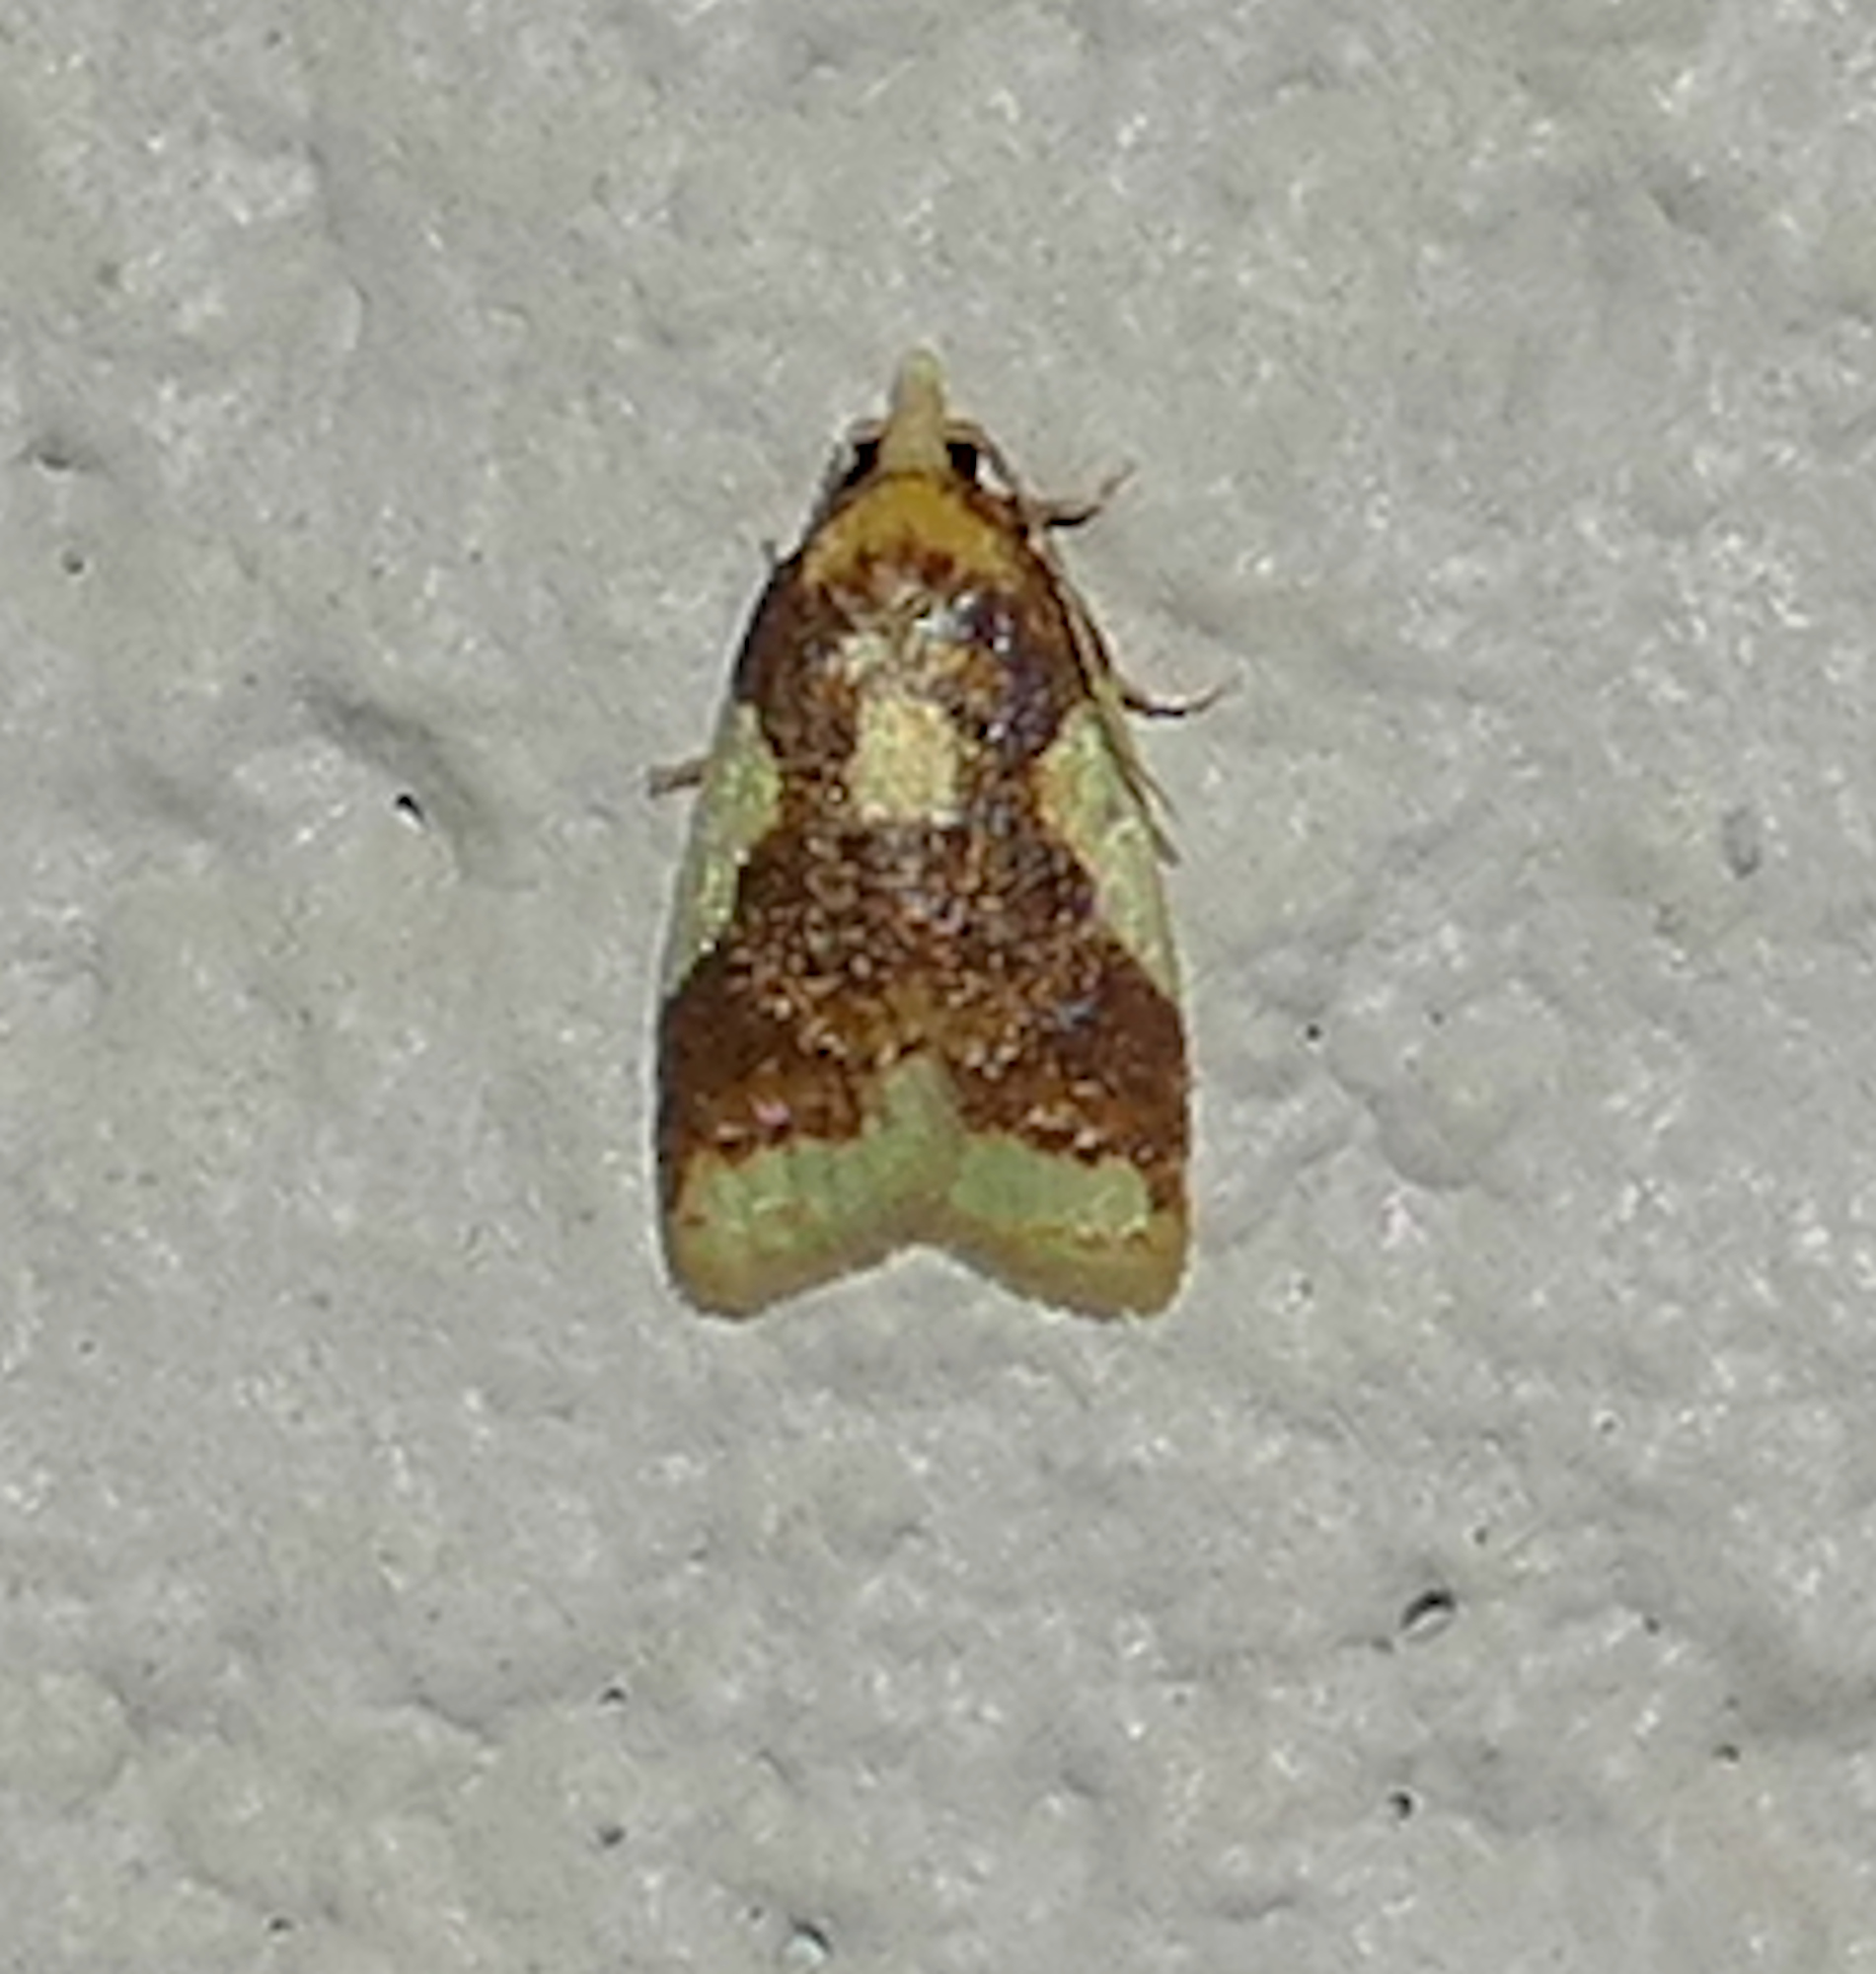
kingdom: Animalia
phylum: Arthropoda
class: Insecta
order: Lepidoptera
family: Tortricidae
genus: Sparganothis
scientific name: Sparganothis pulcherrimana
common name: Beautiful sparganothis
